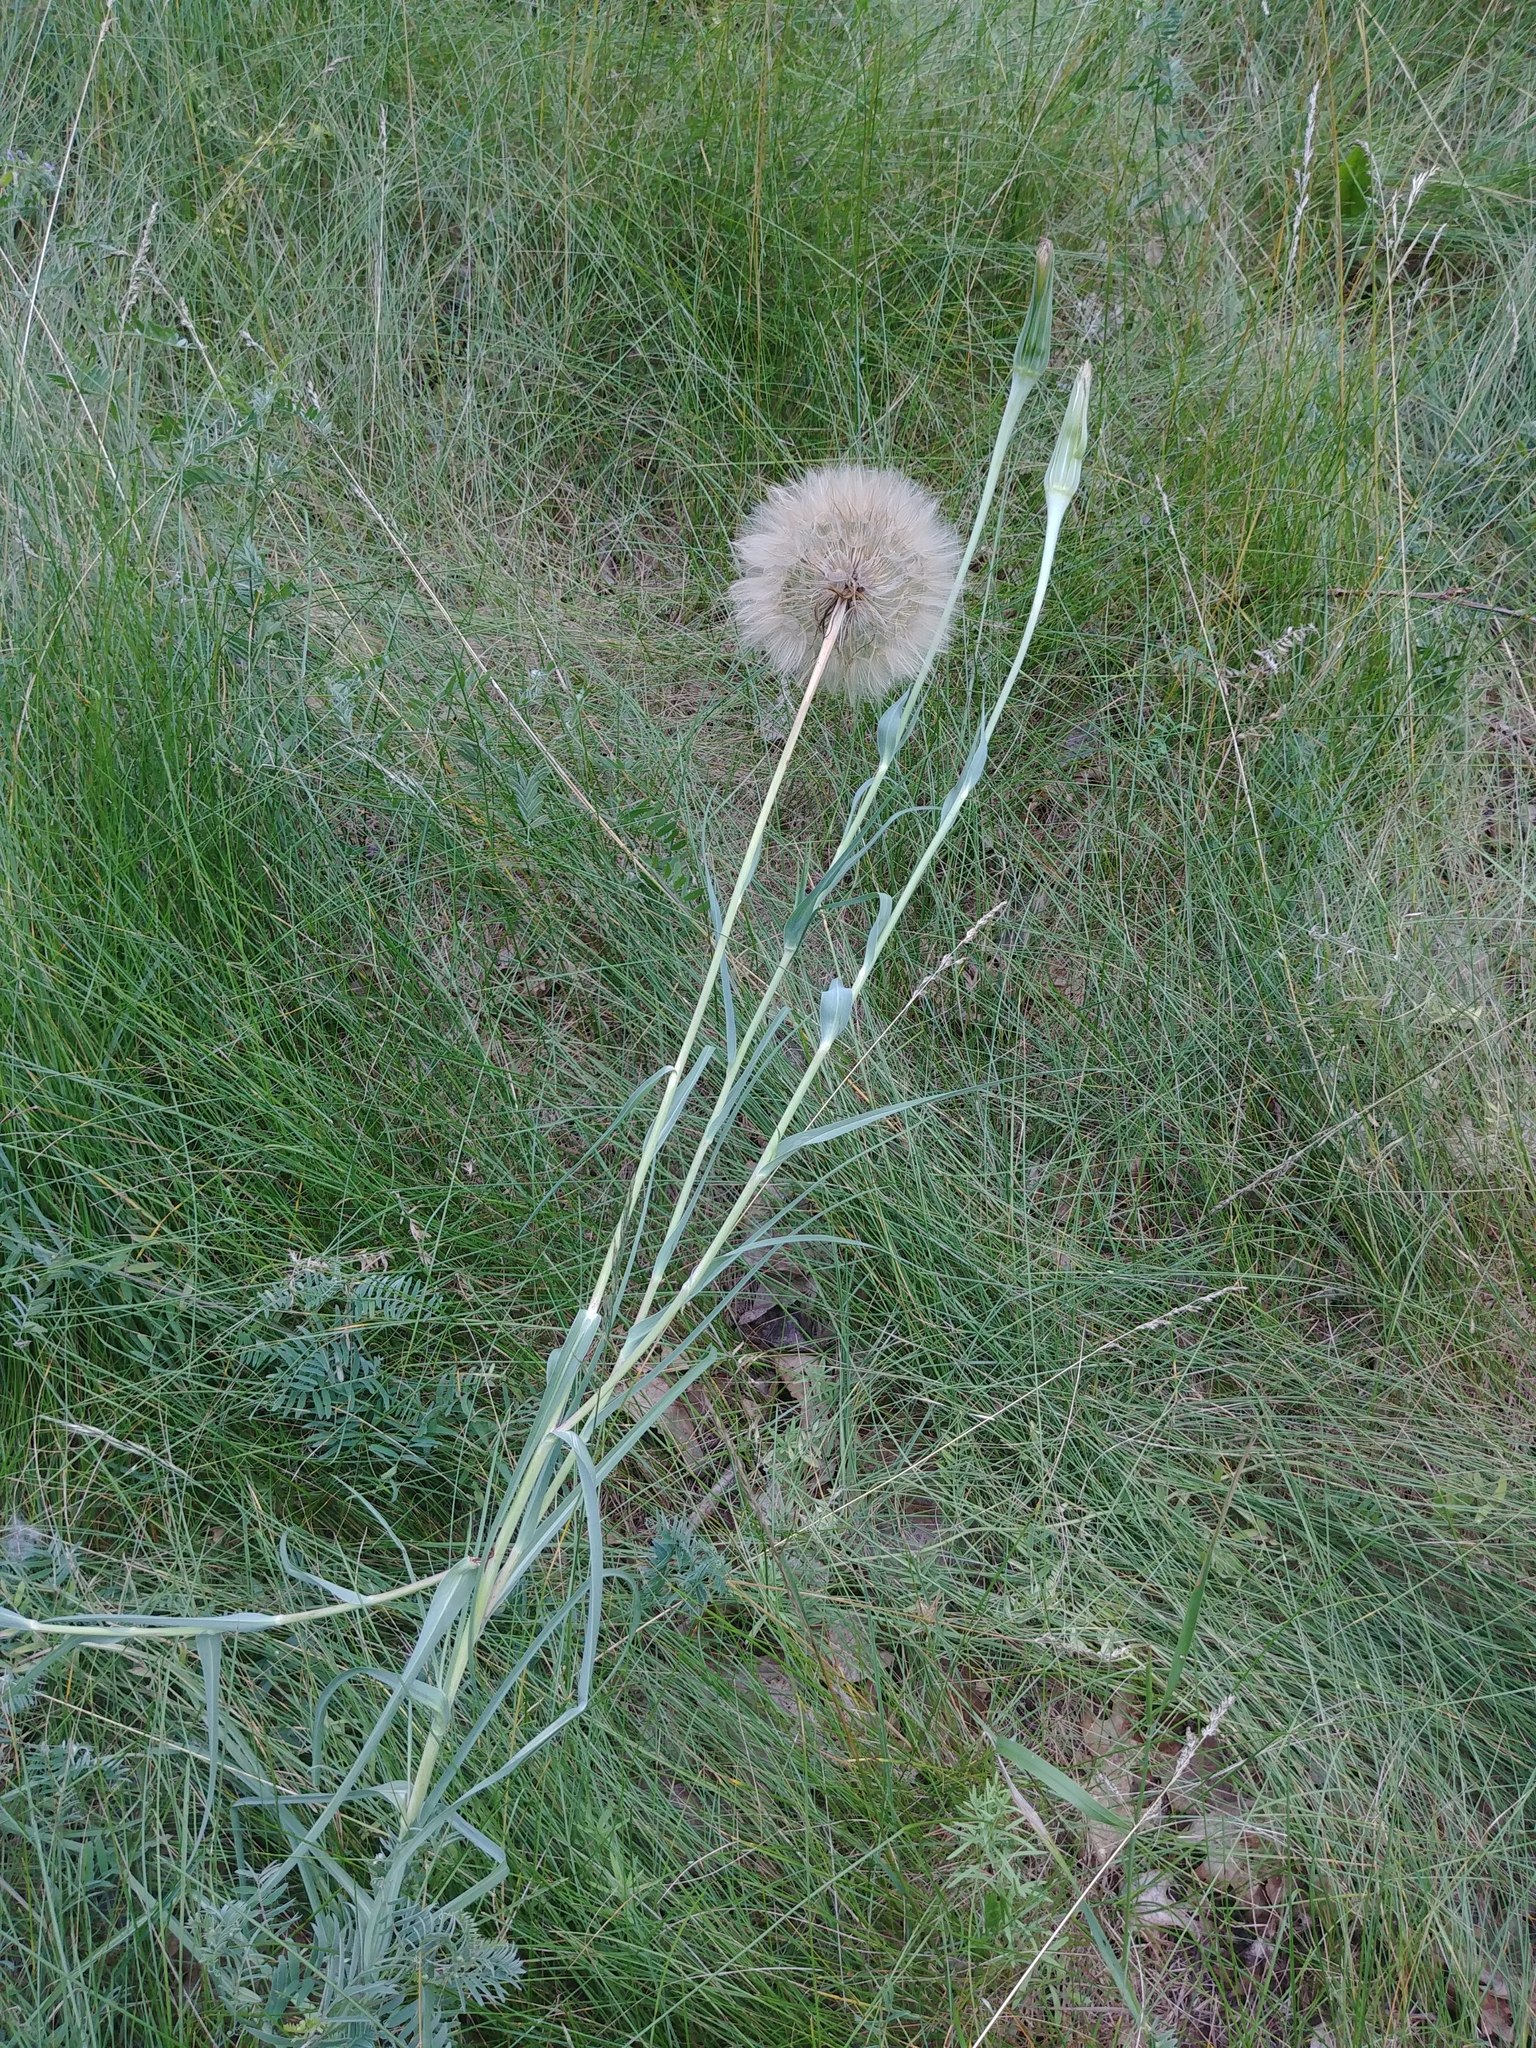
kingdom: Plantae
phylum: Tracheophyta
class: Magnoliopsida
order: Asterales
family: Asteraceae
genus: Tragopogon
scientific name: Tragopogon dubius
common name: Yellow salsify
